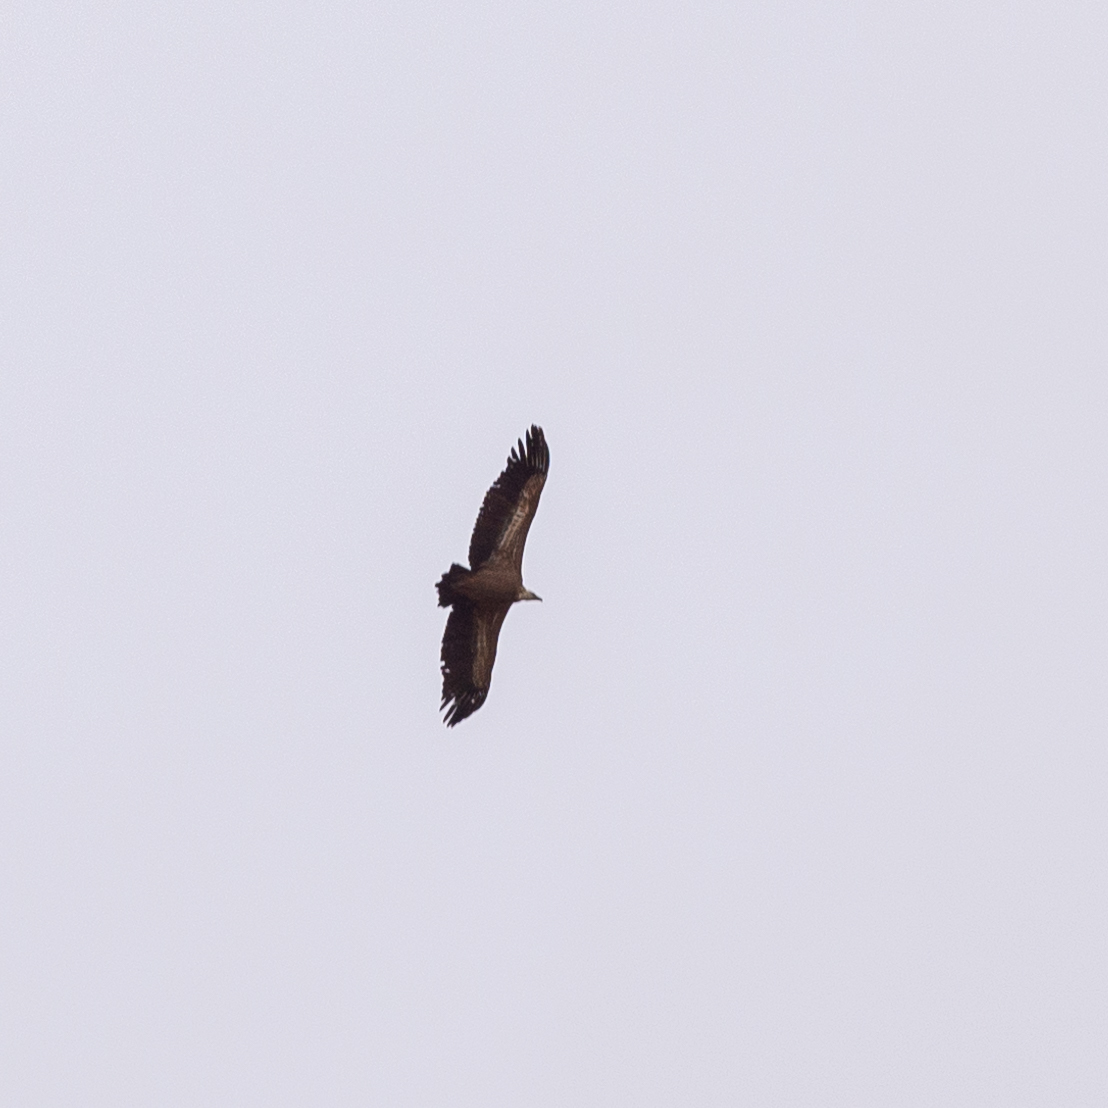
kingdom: Animalia
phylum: Chordata
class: Aves
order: Accipitriformes
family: Accipitridae
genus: Gyps
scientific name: Gyps fulvus
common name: Griffon vulture
